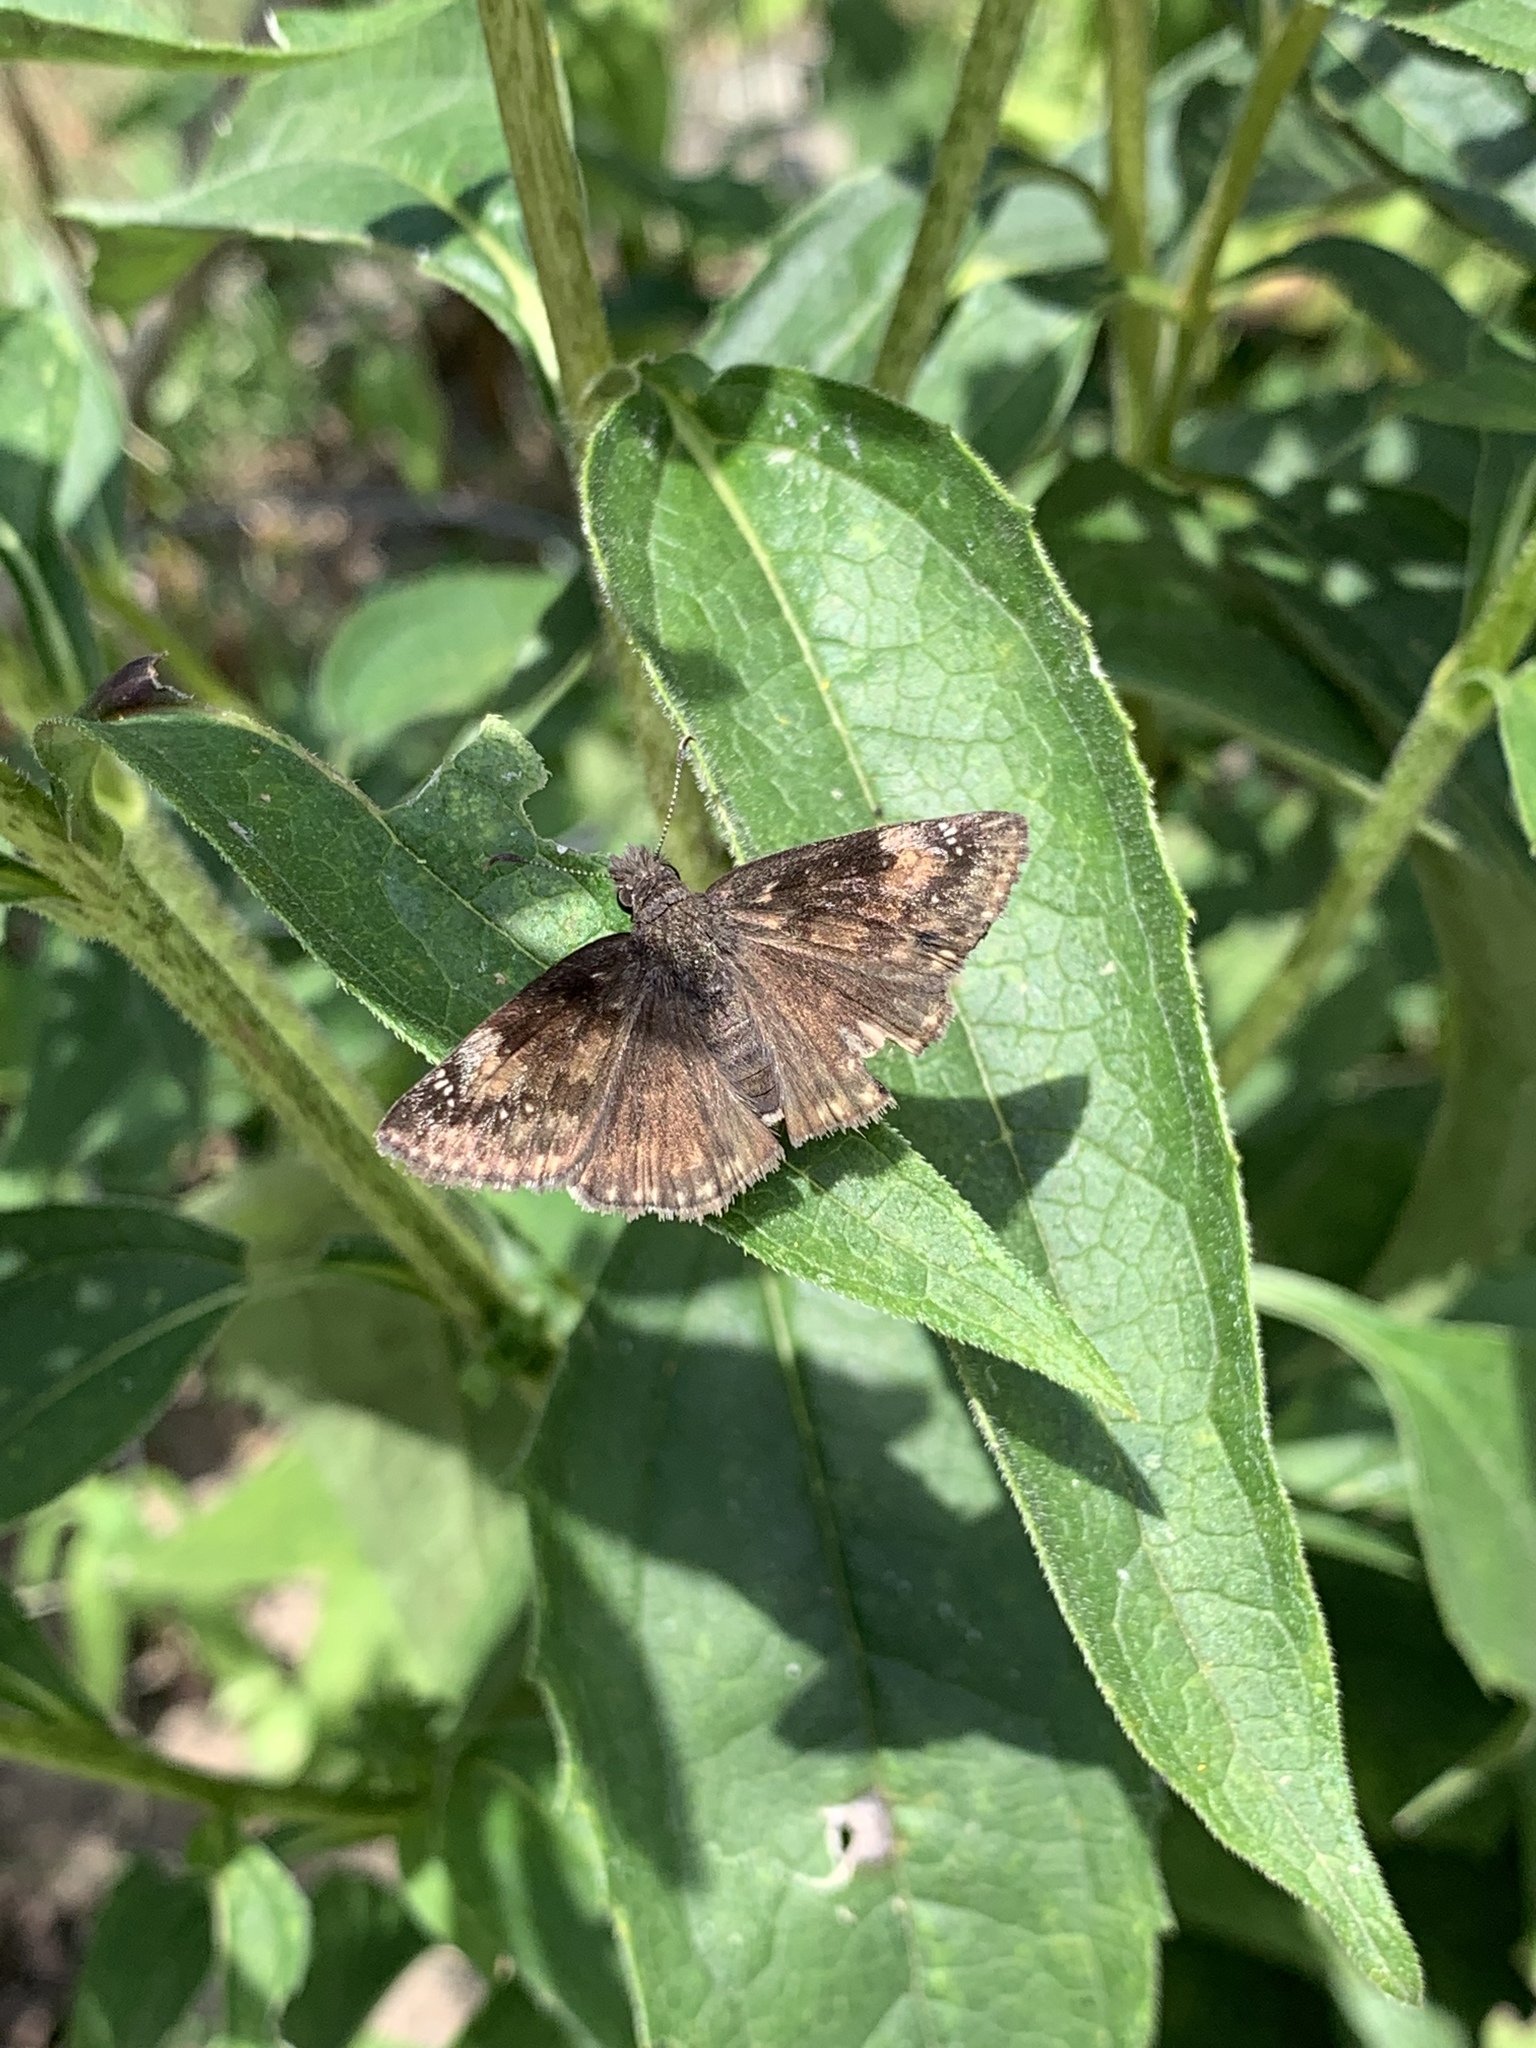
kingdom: Animalia
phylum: Arthropoda
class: Insecta
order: Lepidoptera
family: Hesperiidae
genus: Erynnis
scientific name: Erynnis baptisiae
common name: Wild indigo duskywing
